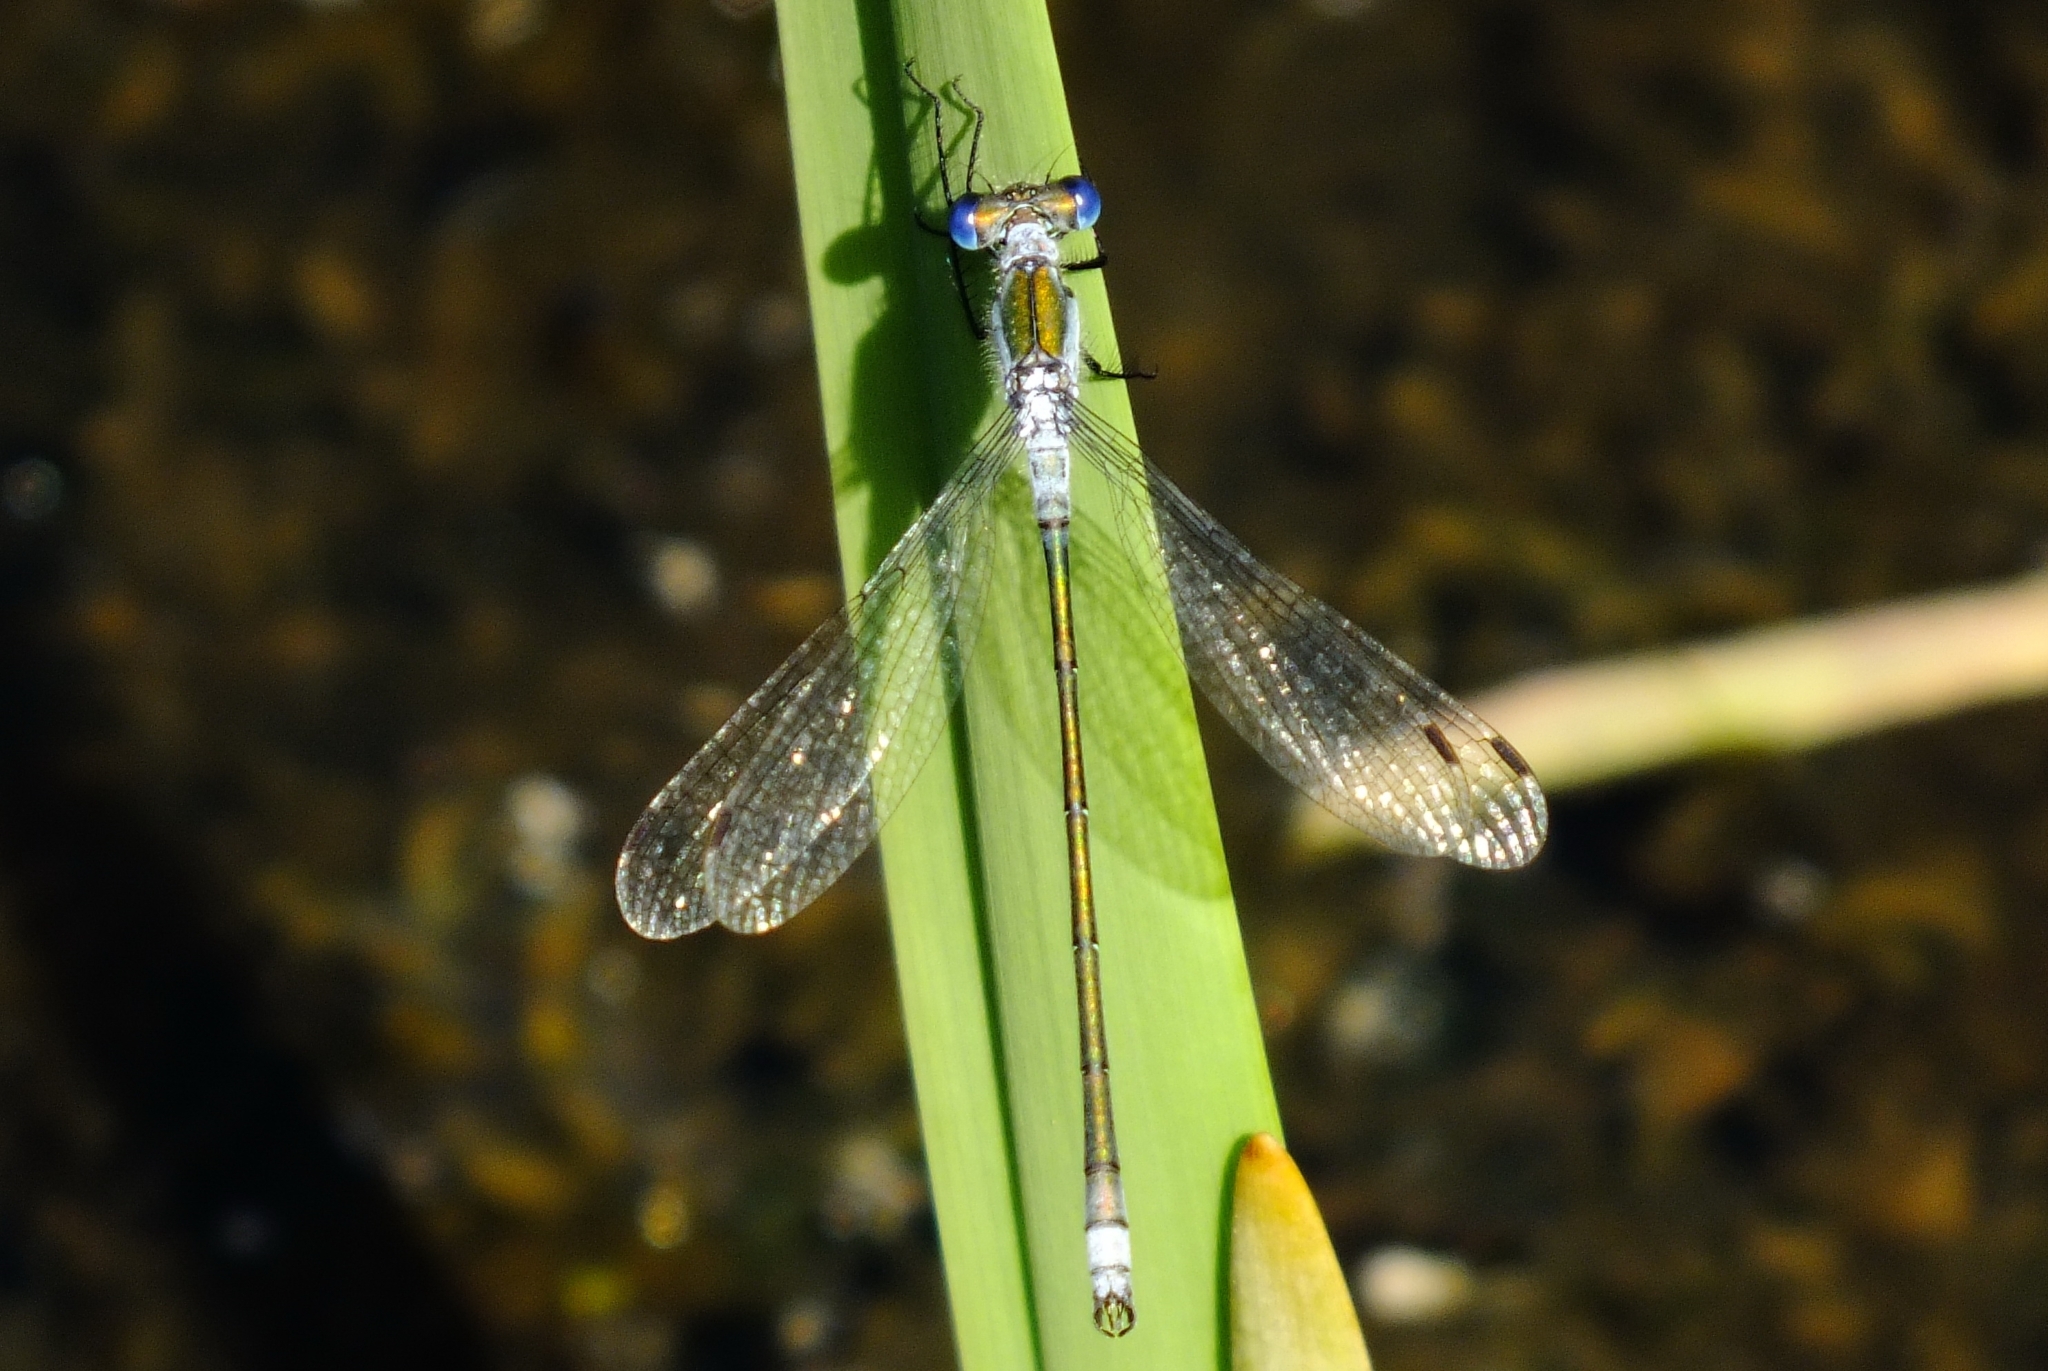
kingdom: Animalia
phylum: Arthropoda
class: Insecta
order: Odonata
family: Lestidae
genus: Lestes
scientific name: Lestes sponsa
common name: Common spreadwing
